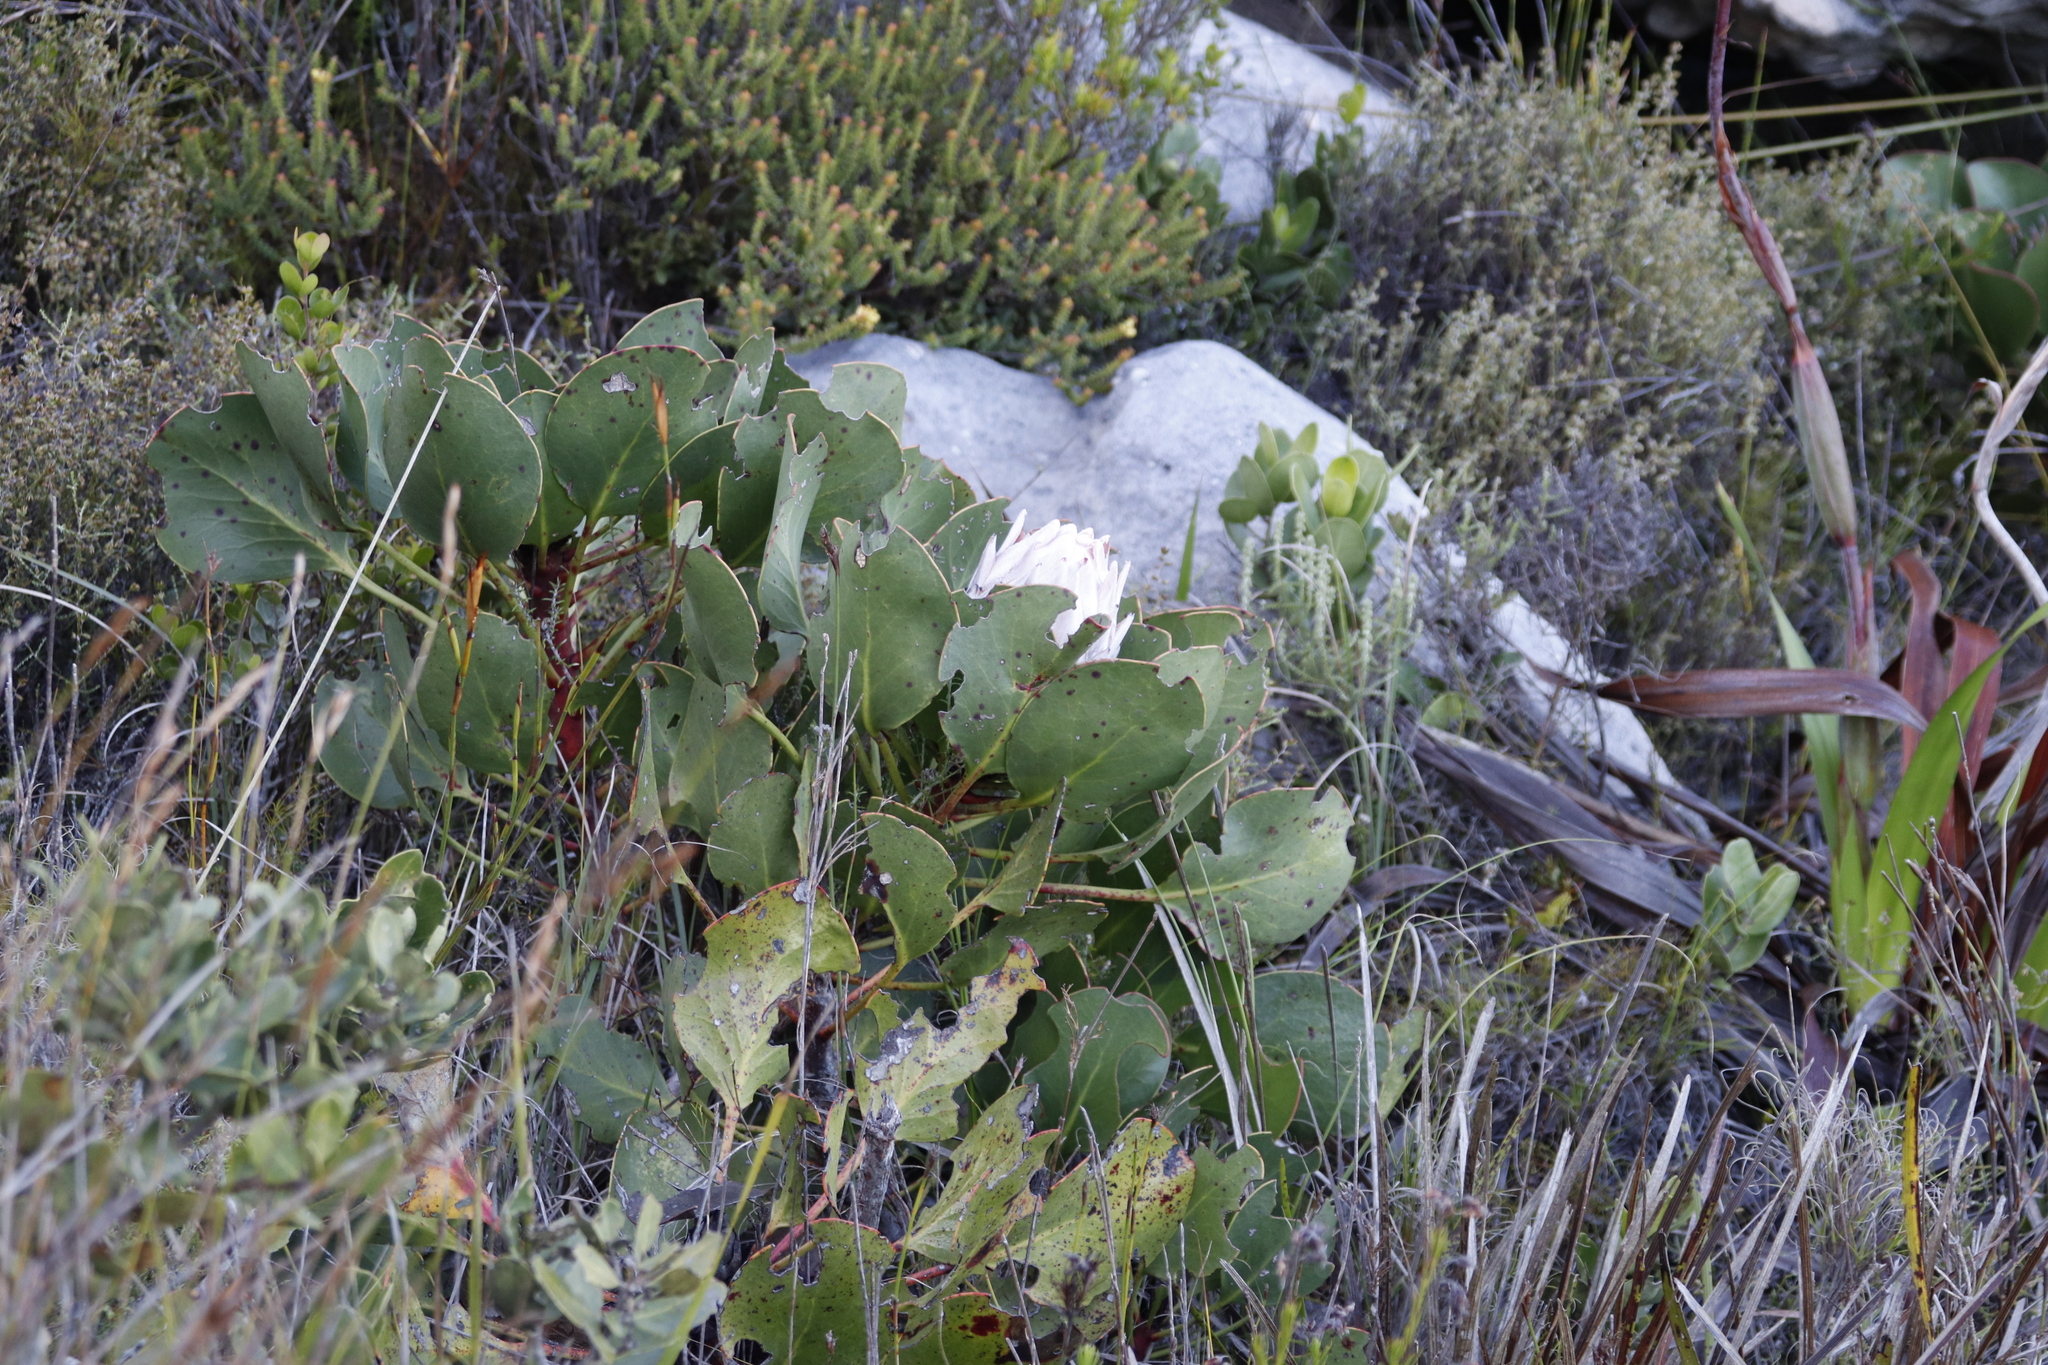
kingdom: Plantae
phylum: Tracheophyta
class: Magnoliopsida
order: Proteales
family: Proteaceae
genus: Protea
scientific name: Protea cynaroides
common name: King protea
